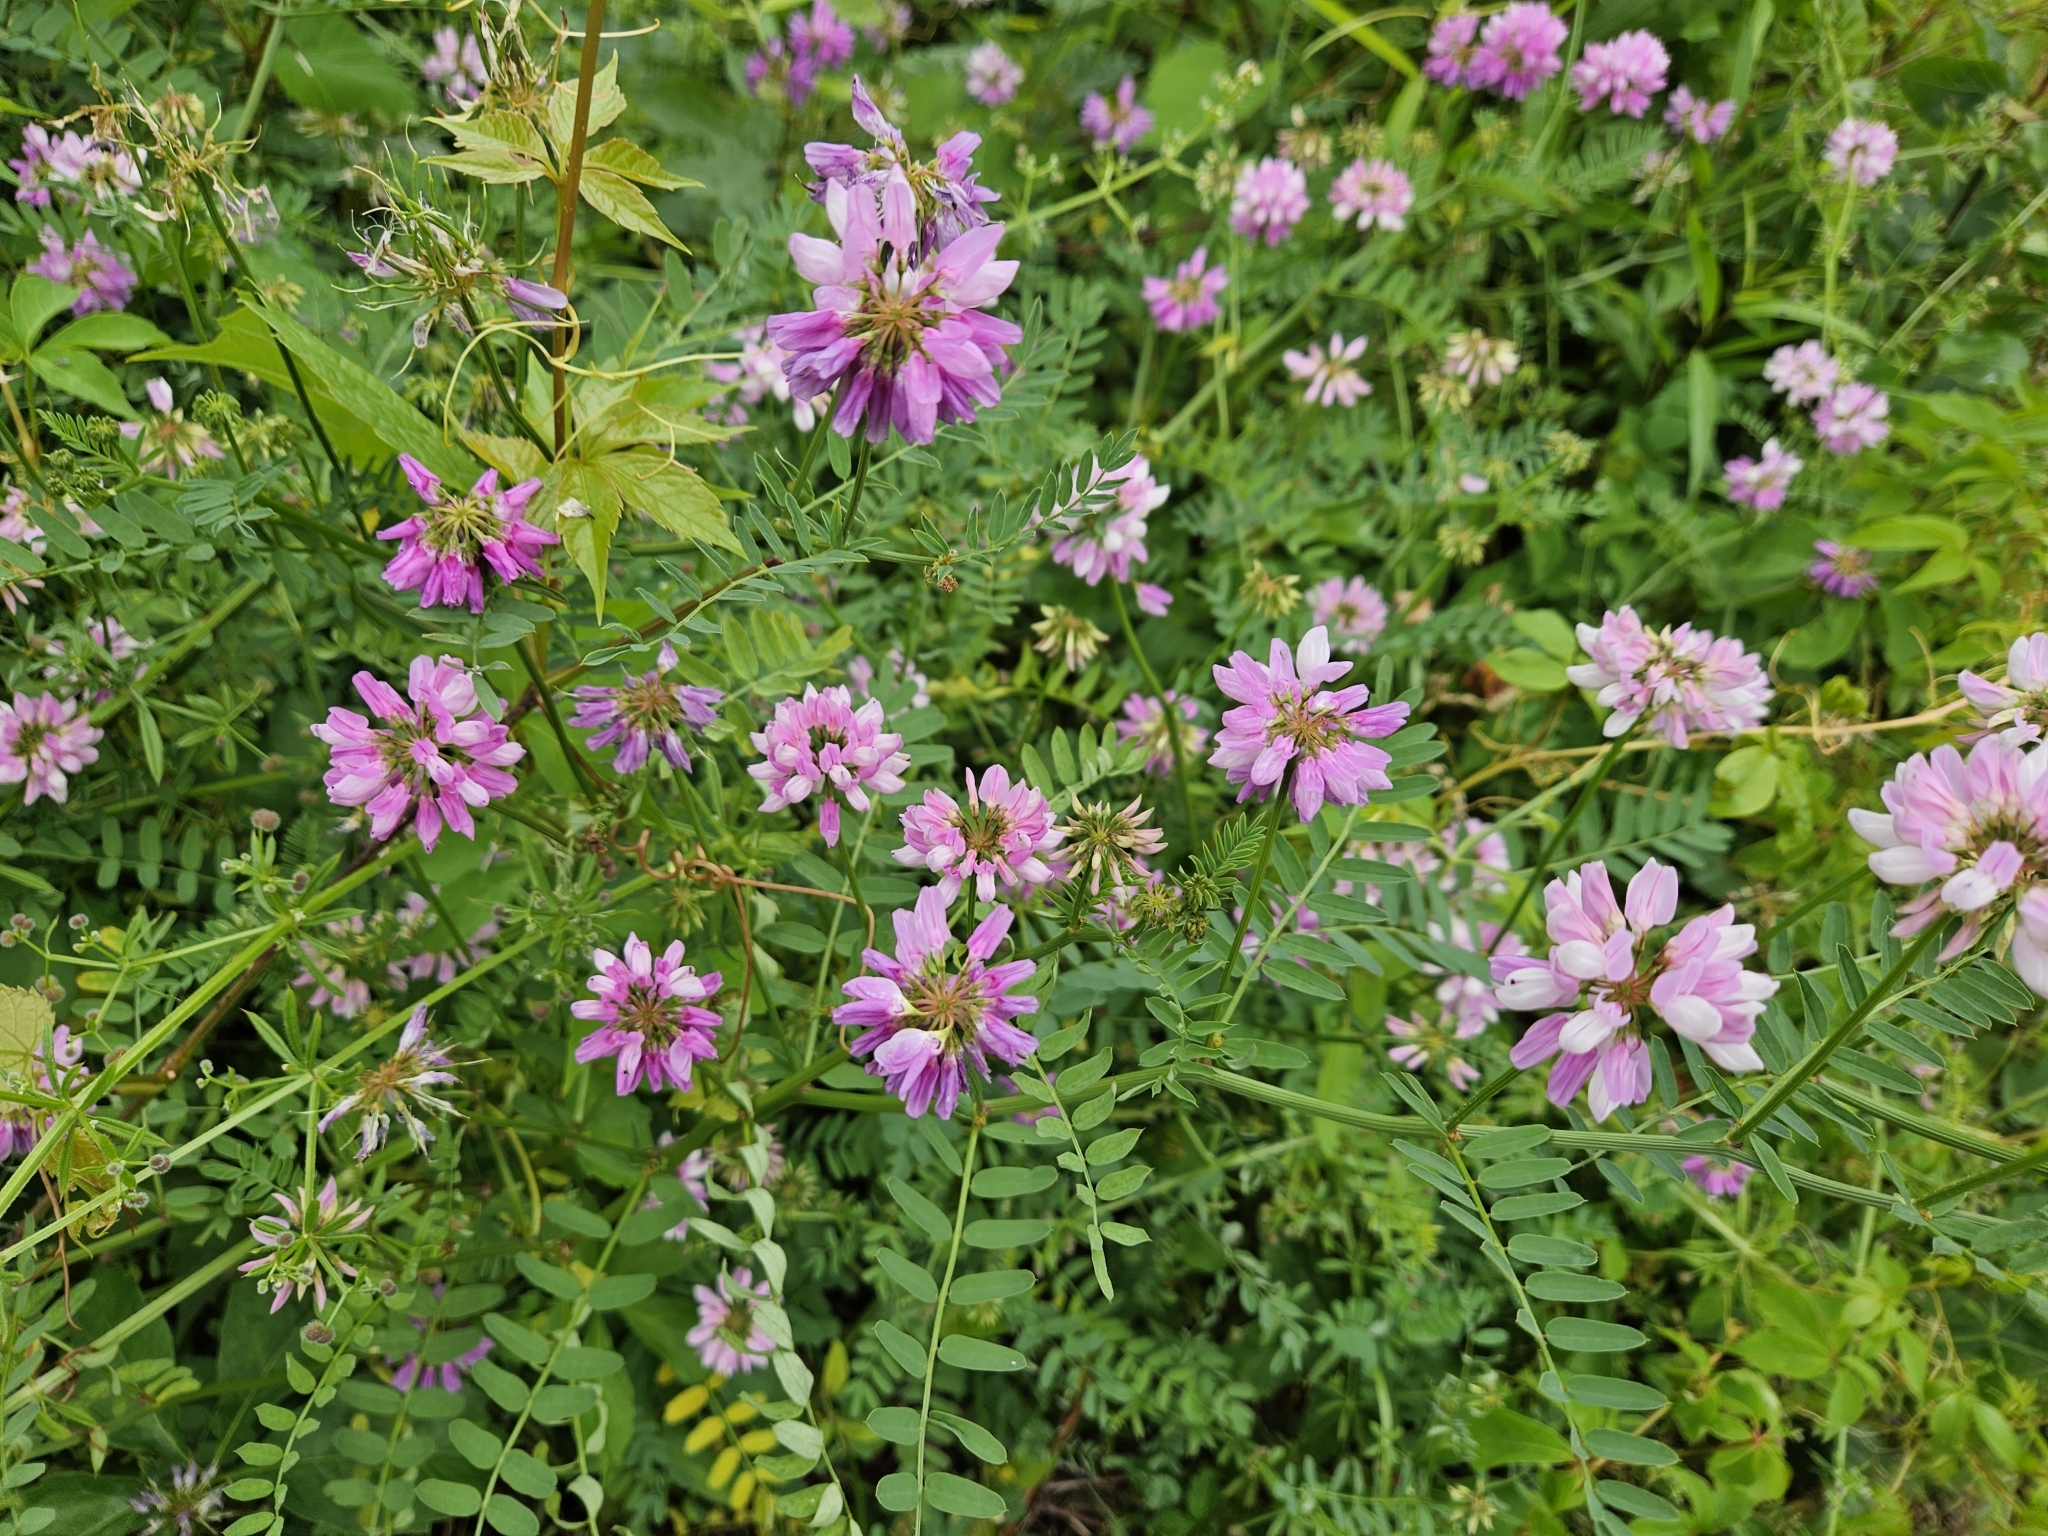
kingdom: Plantae
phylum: Tracheophyta
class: Magnoliopsida
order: Fabales
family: Fabaceae
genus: Coronilla
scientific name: Coronilla varia
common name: Crownvetch
